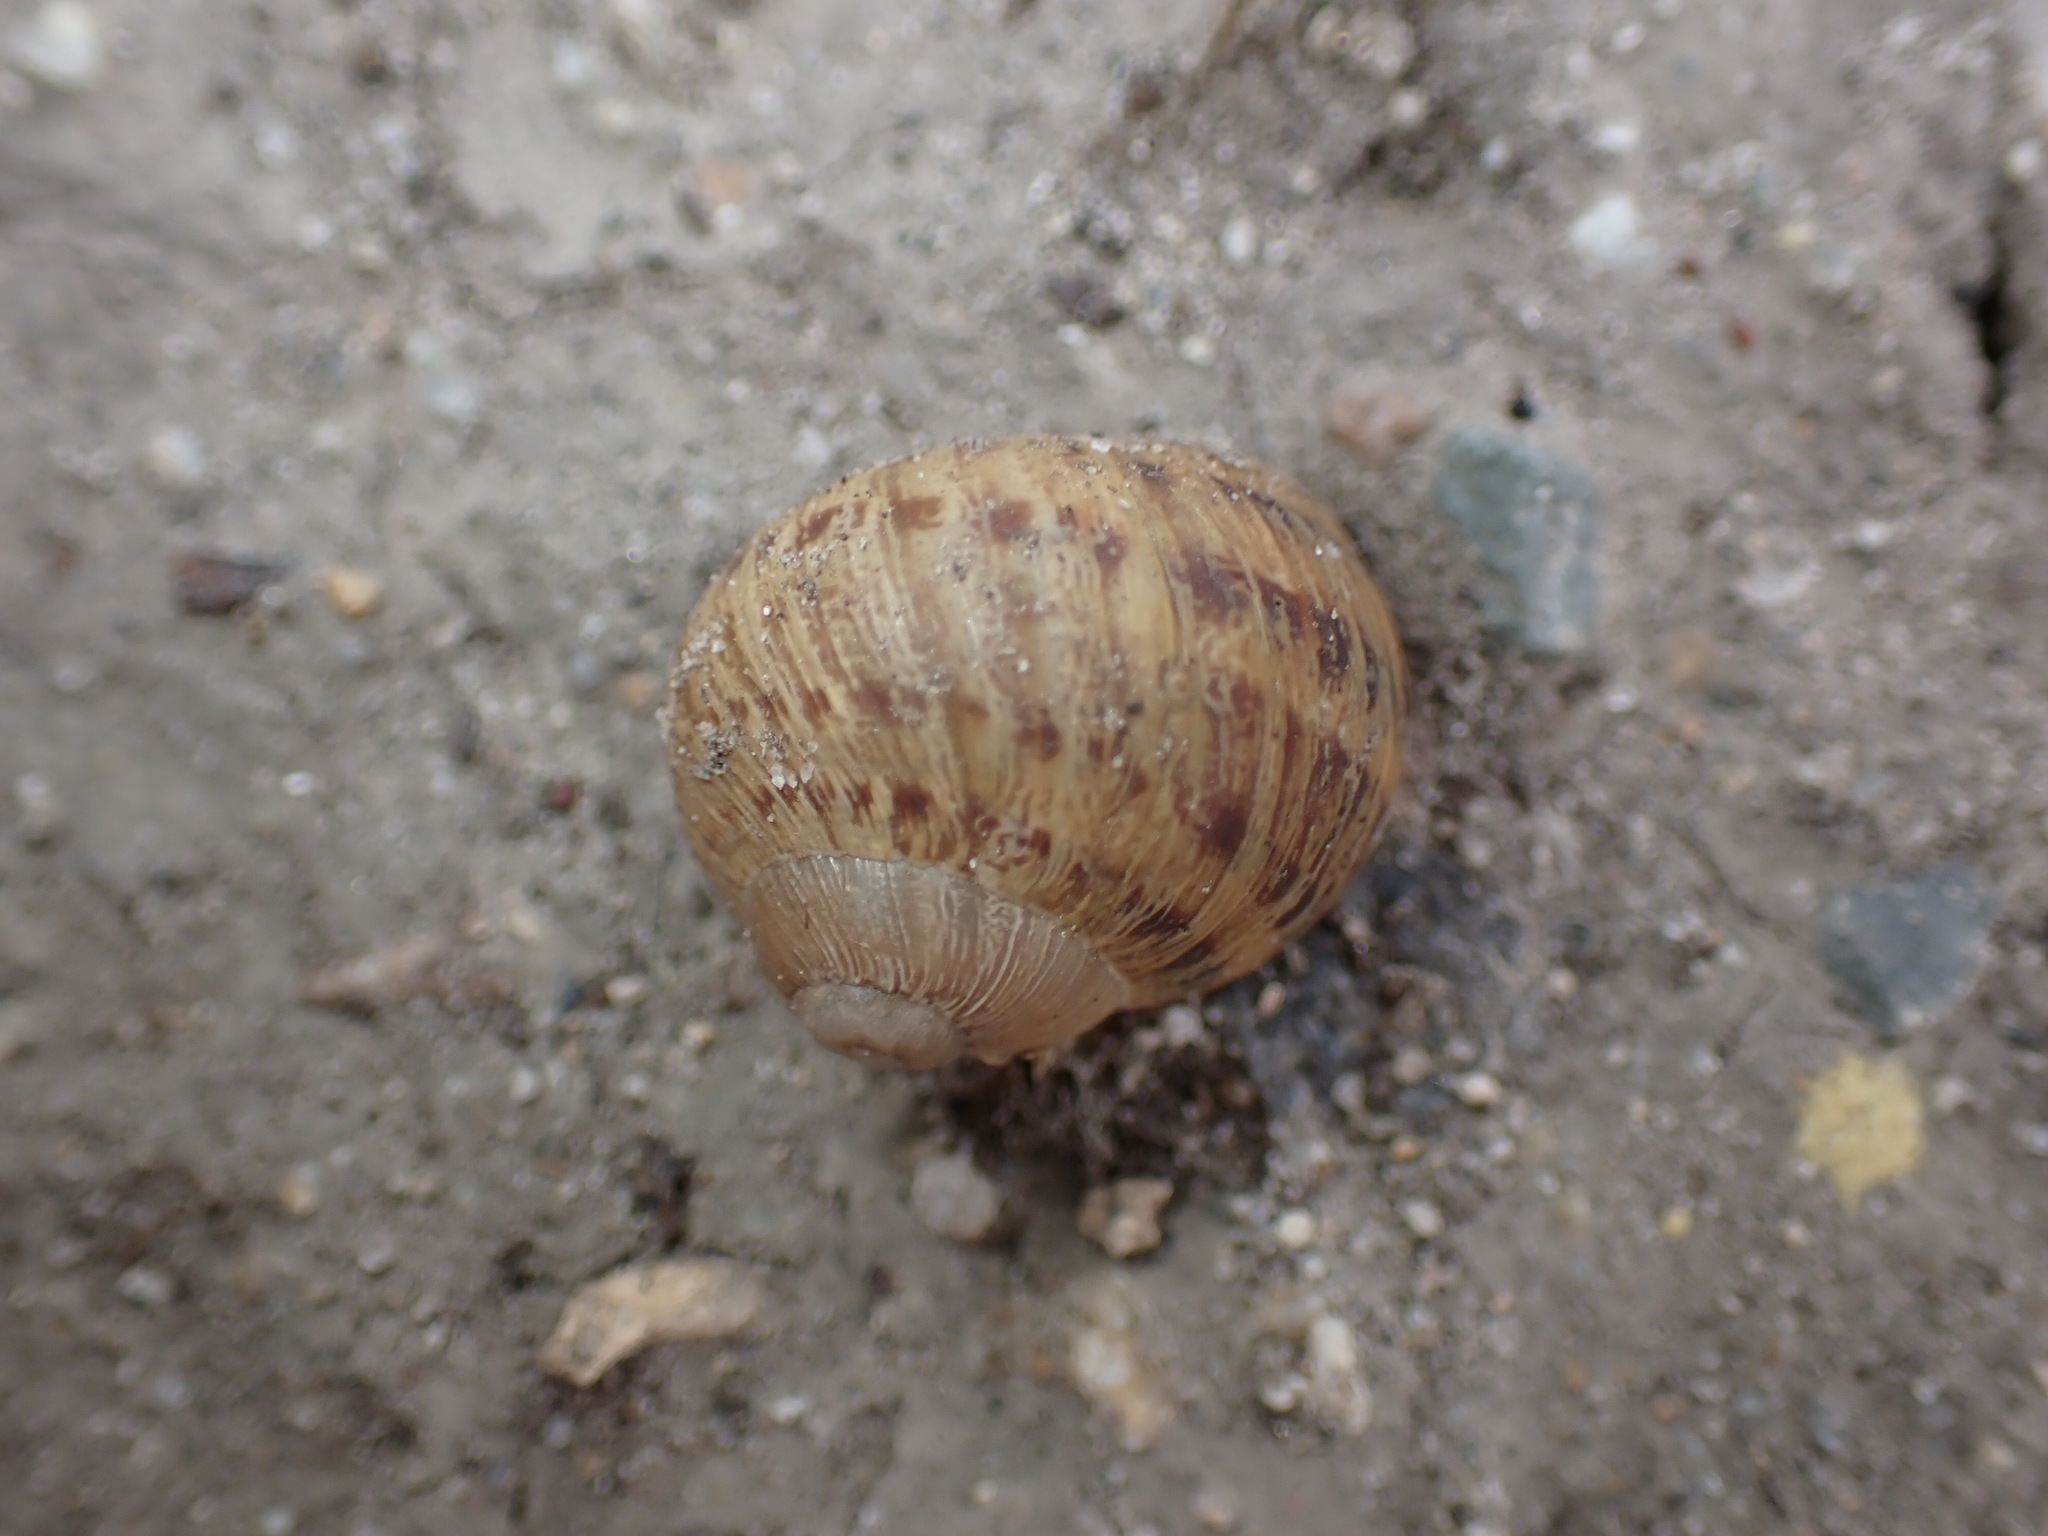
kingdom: Animalia
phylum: Mollusca
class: Gastropoda
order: Stylommatophora
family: Helicidae
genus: Cornu
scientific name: Cornu aspersum
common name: Brown garden snail
